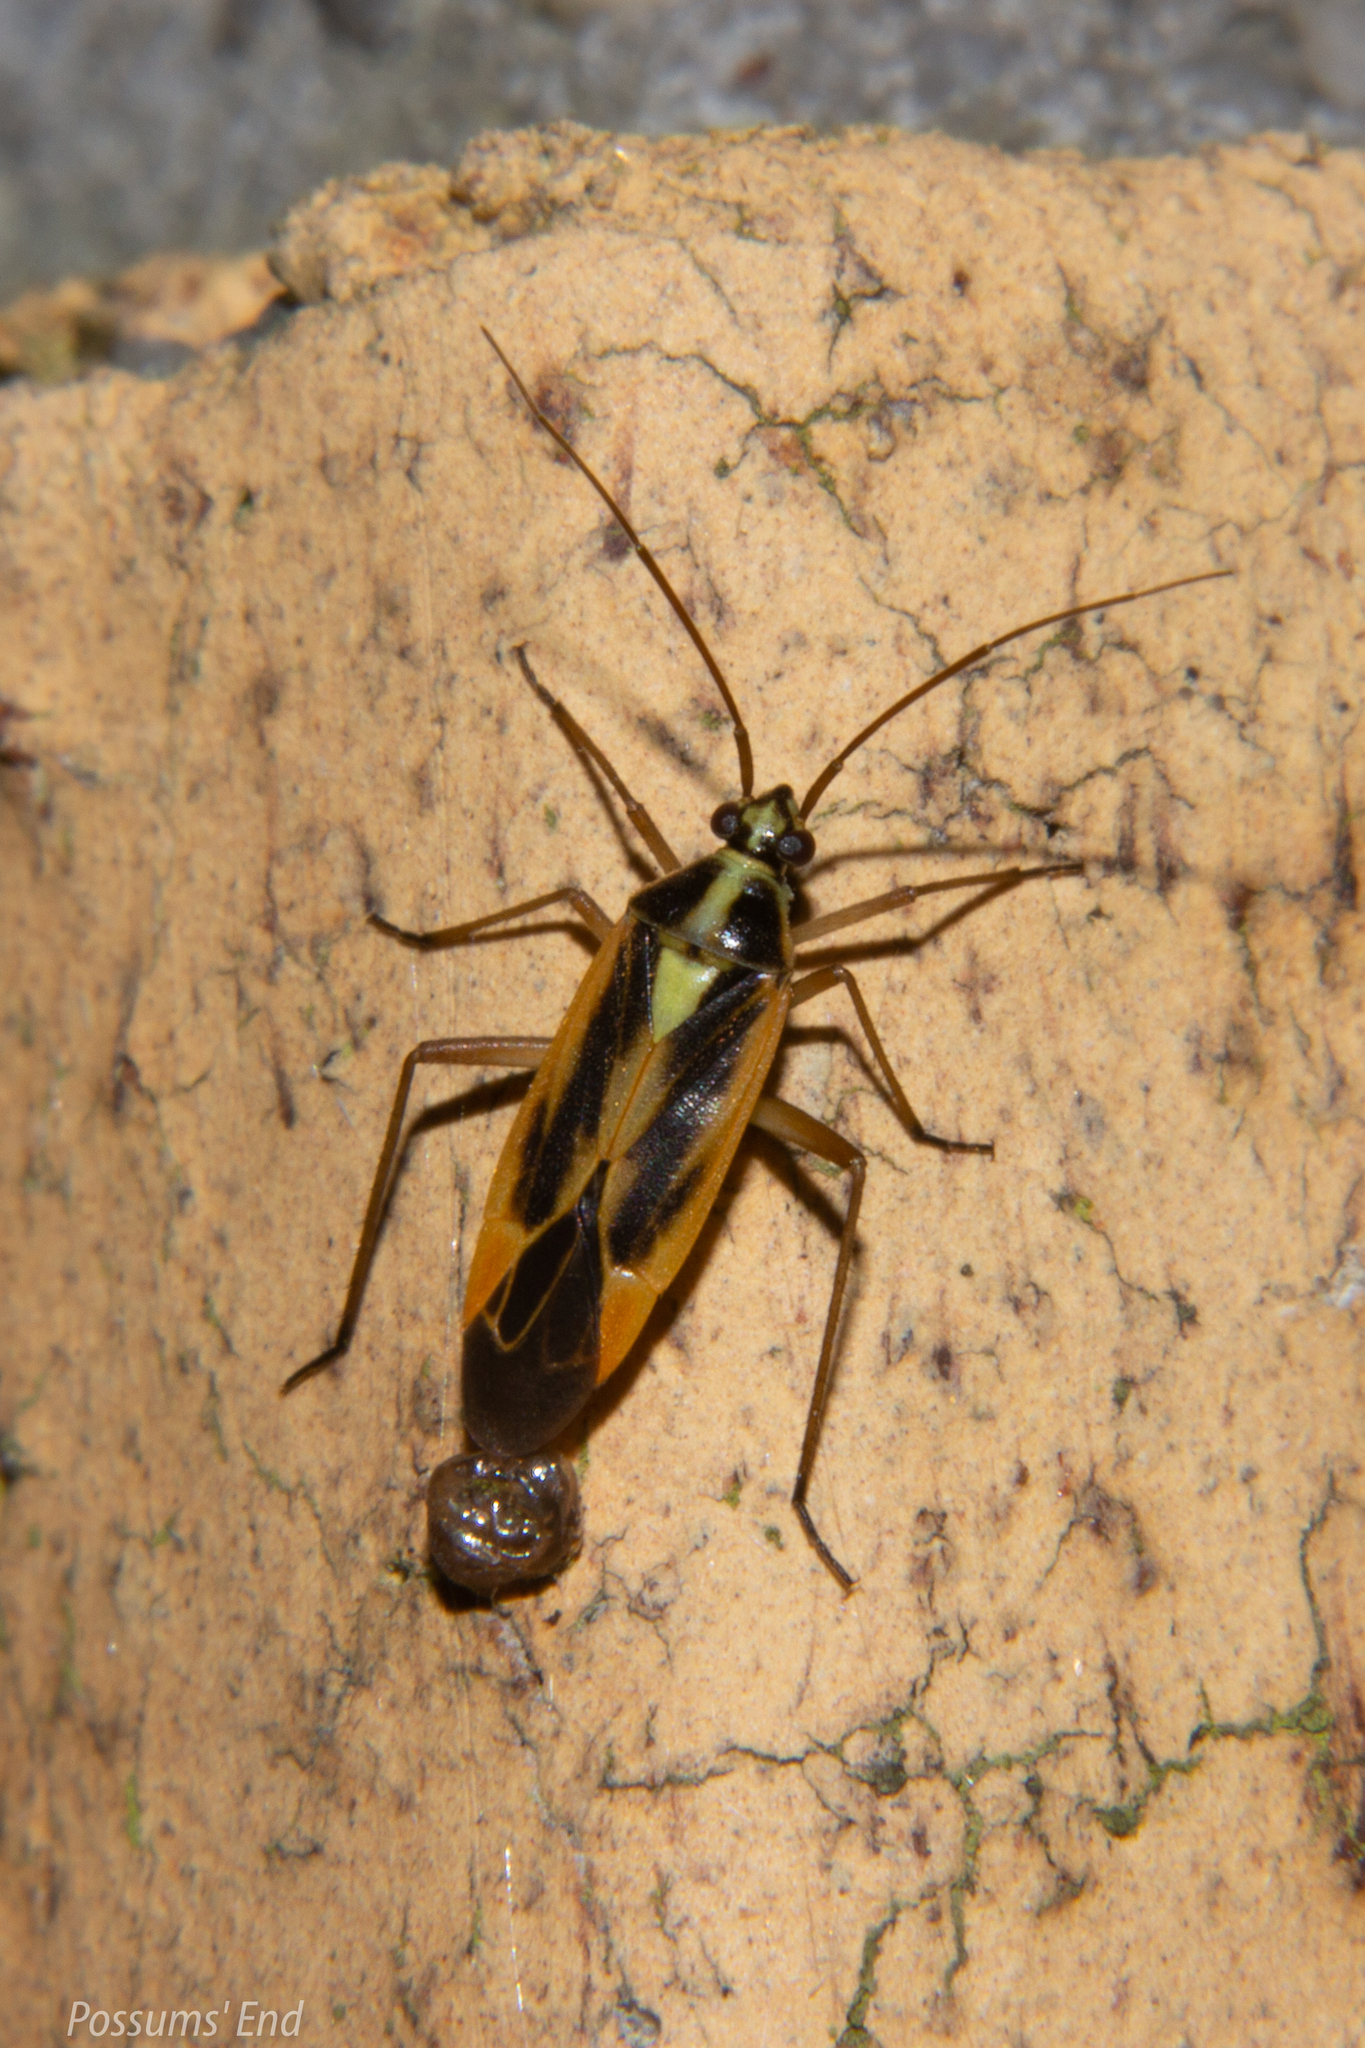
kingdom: Animalia
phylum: Arthropoda
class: Insecta
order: Hemiptera
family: Miridae
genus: Stenotus
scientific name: Stenotus binotatus
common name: Plant bug
